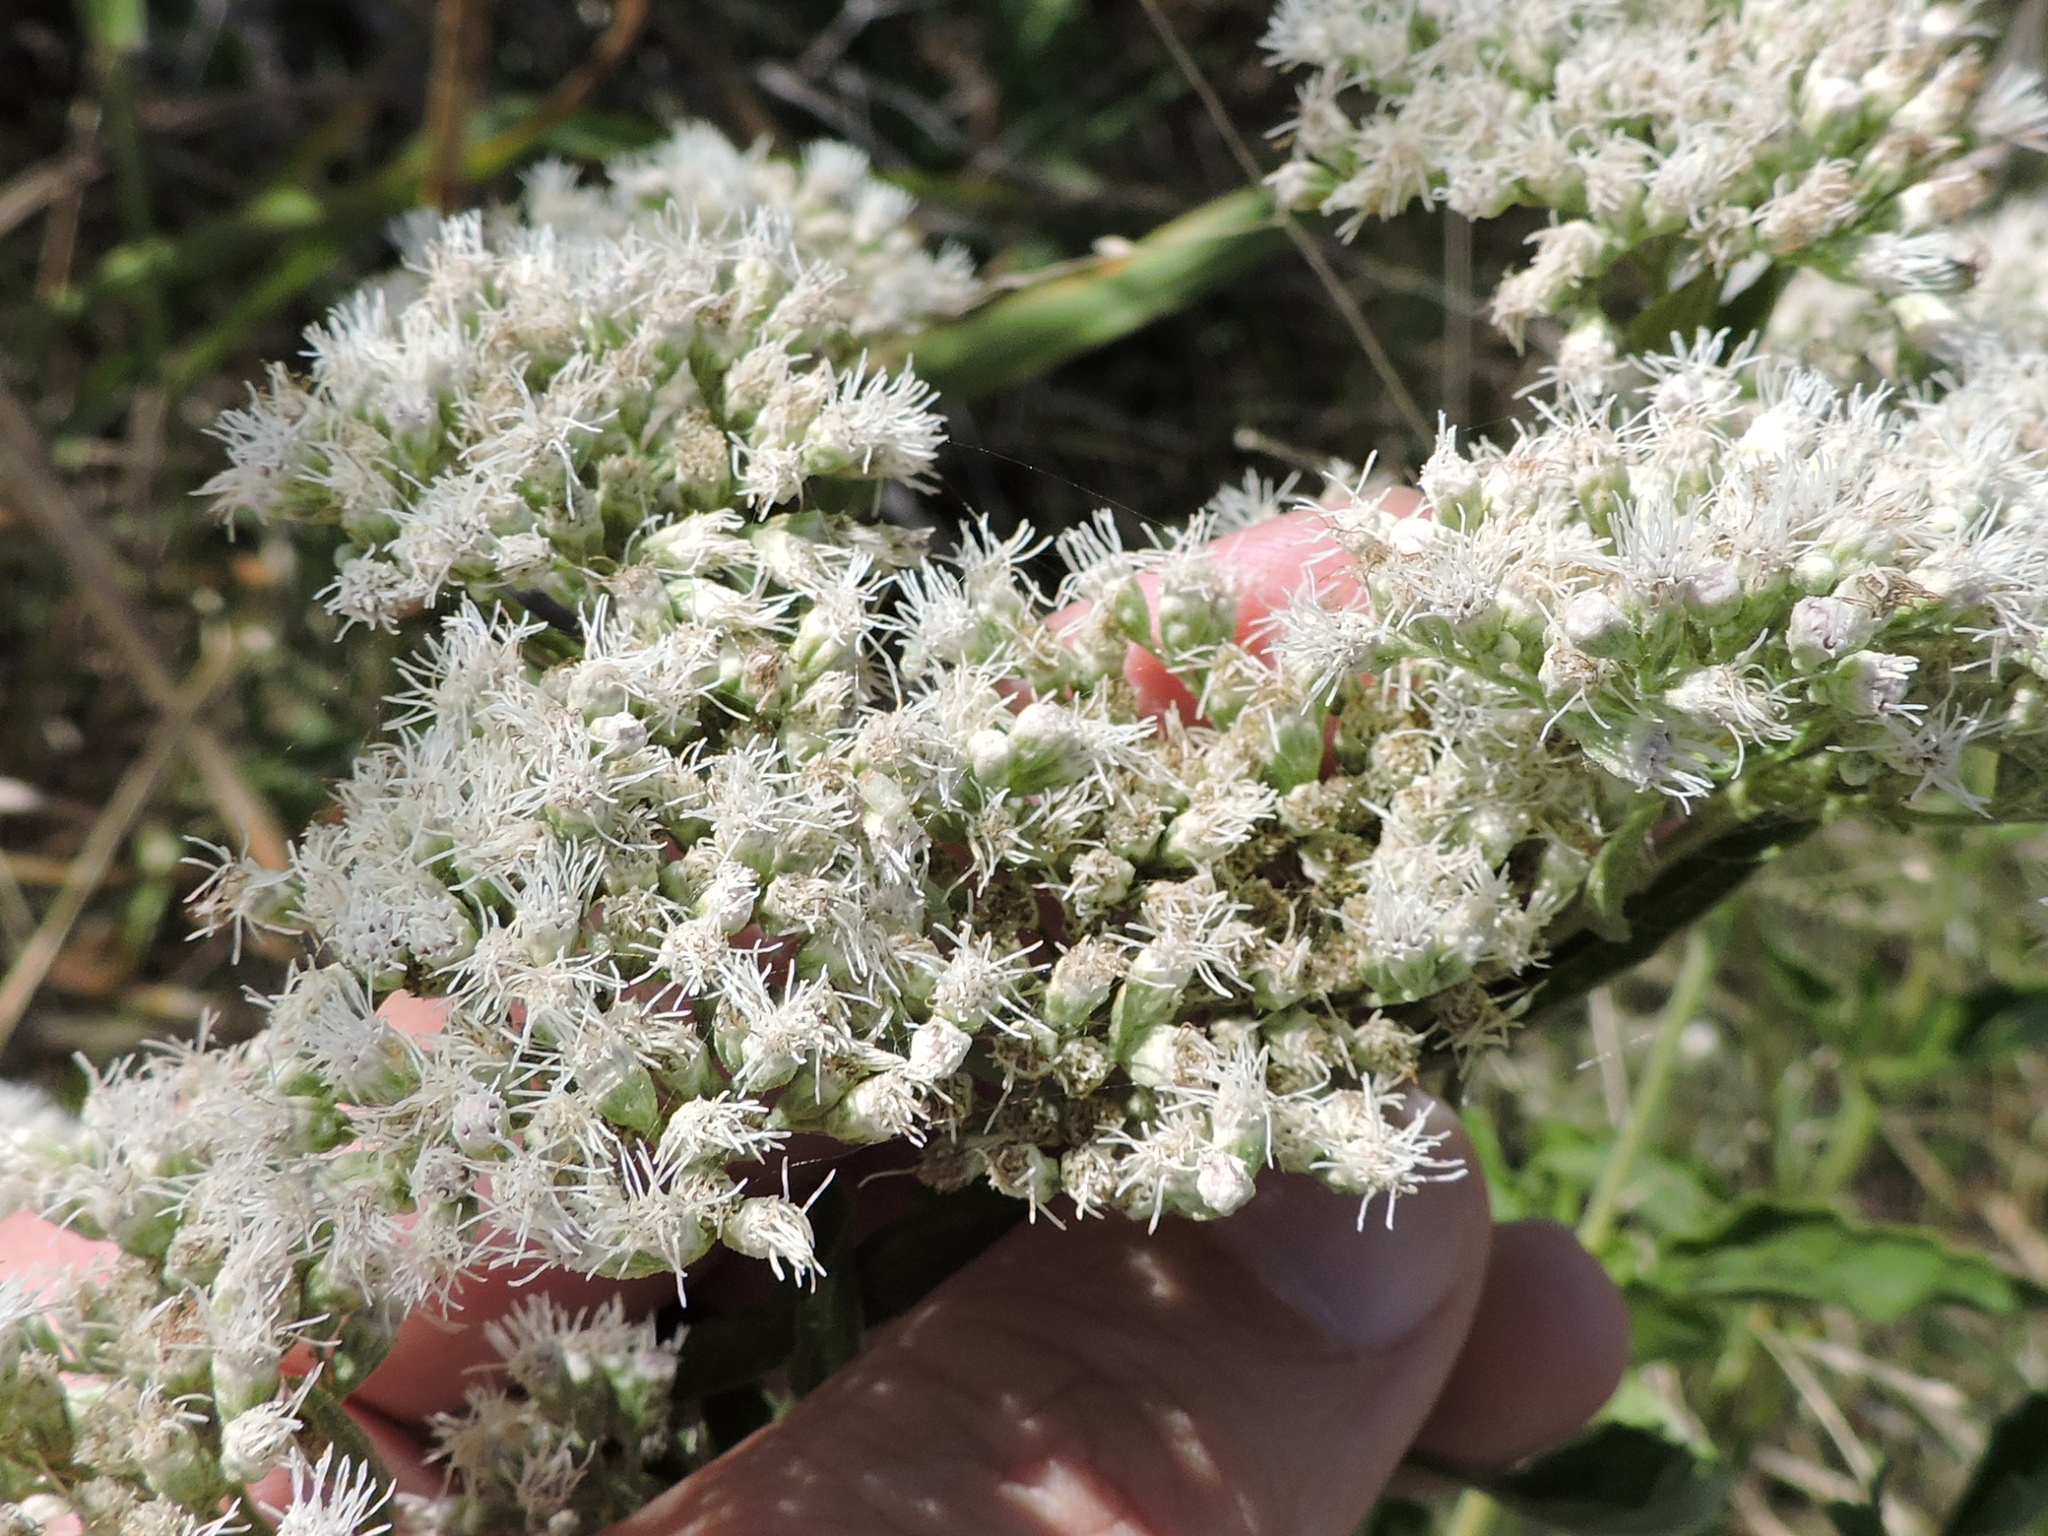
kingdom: Plantae
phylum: Tracheophyta
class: Magnoliopsida
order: Asterales
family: Asteraceae
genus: Eupatorium
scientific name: Eupatorium serotinum
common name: Late boneset
